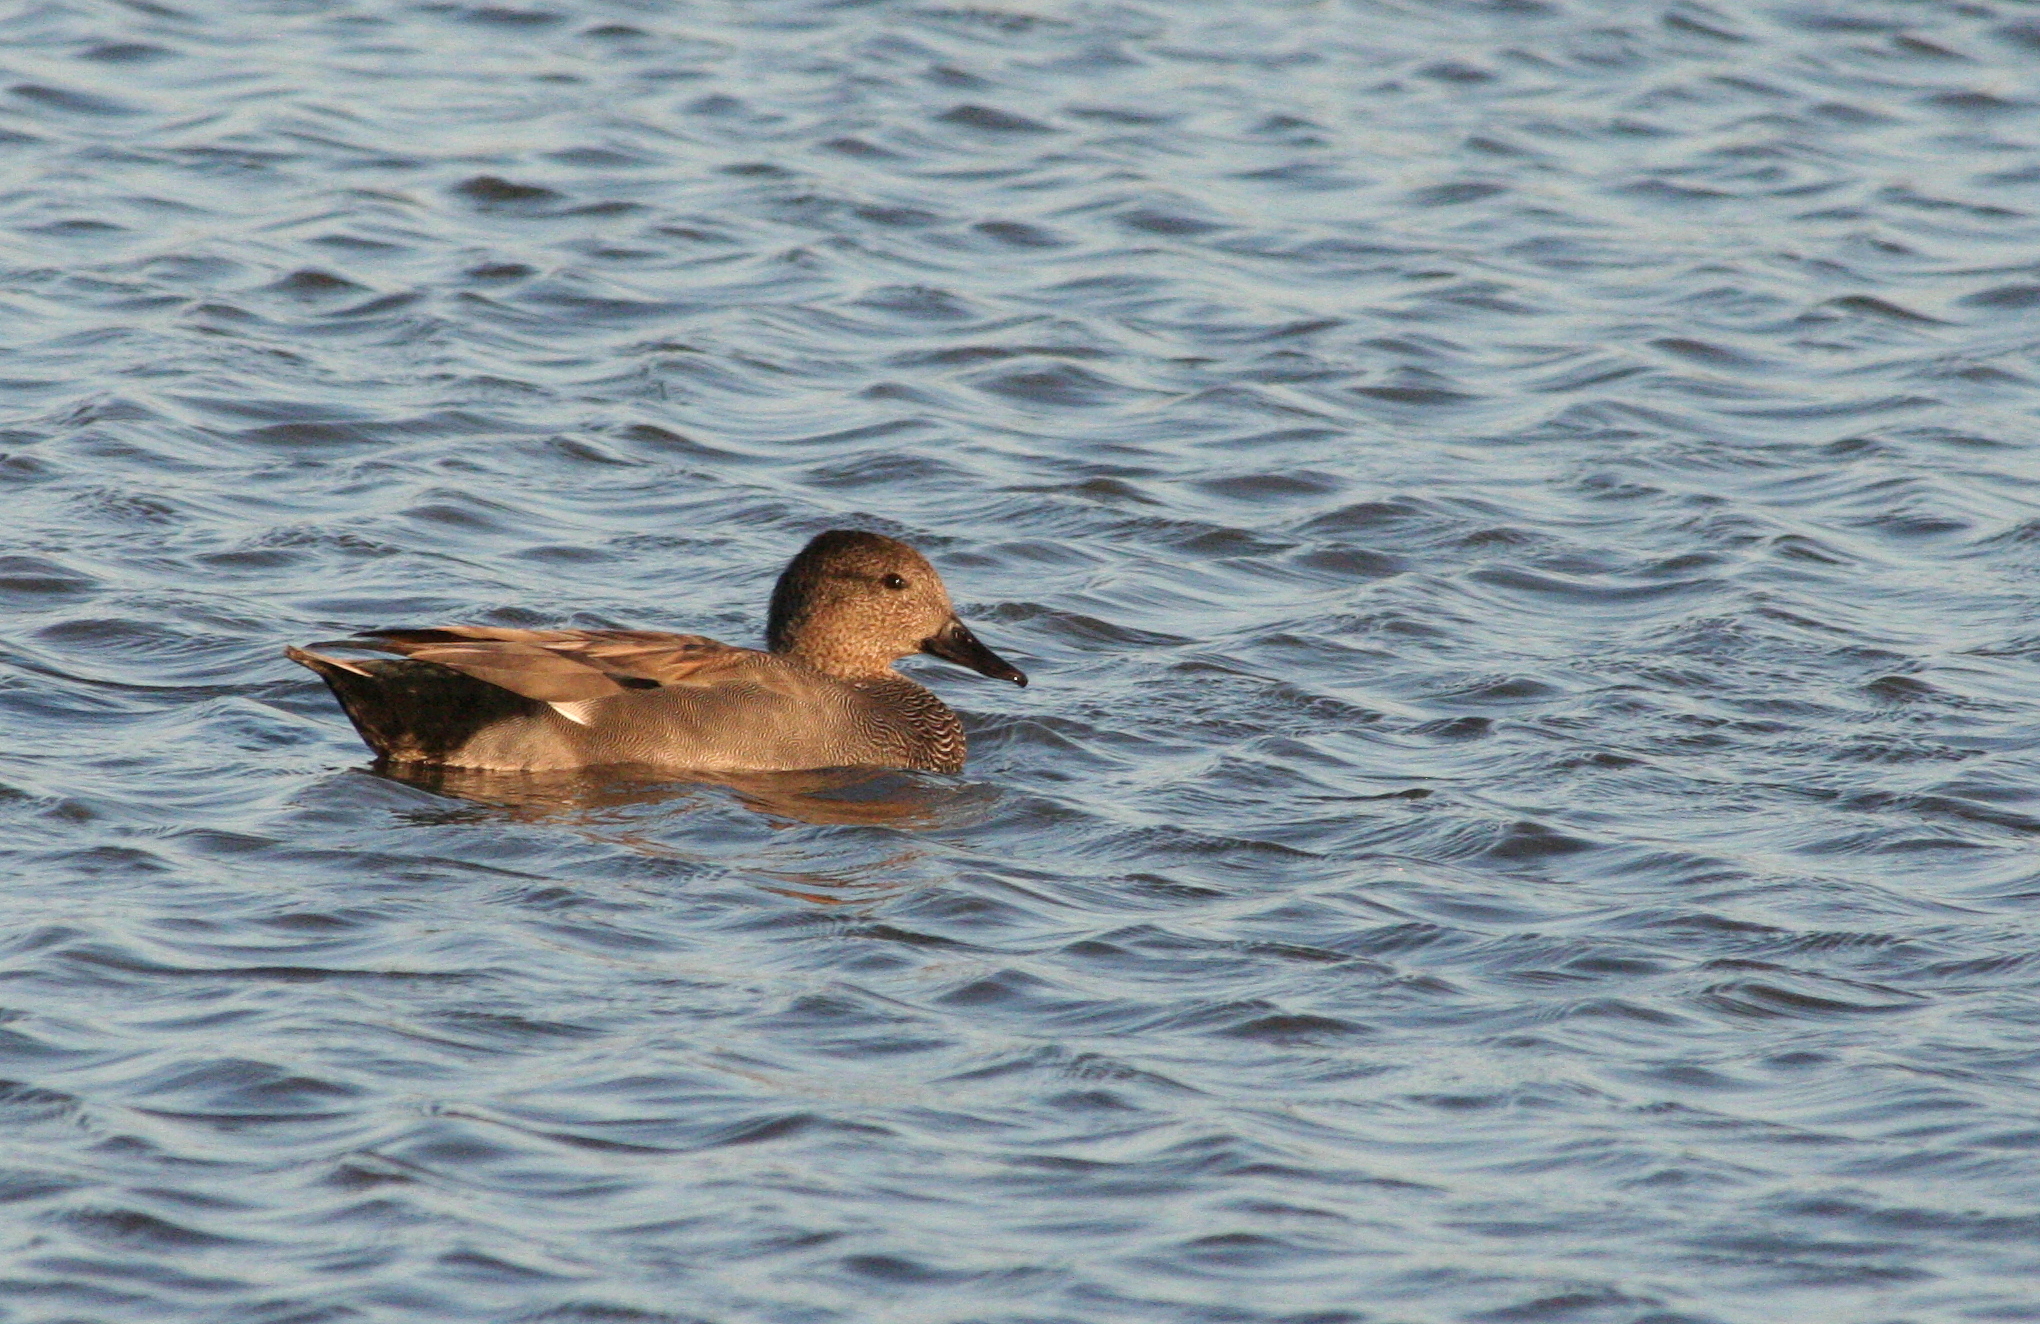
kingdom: Animalia
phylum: Chordata
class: Aves
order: Anseriformes
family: Anatidae
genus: Mareca
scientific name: Mareca strepera
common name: Gadwall
